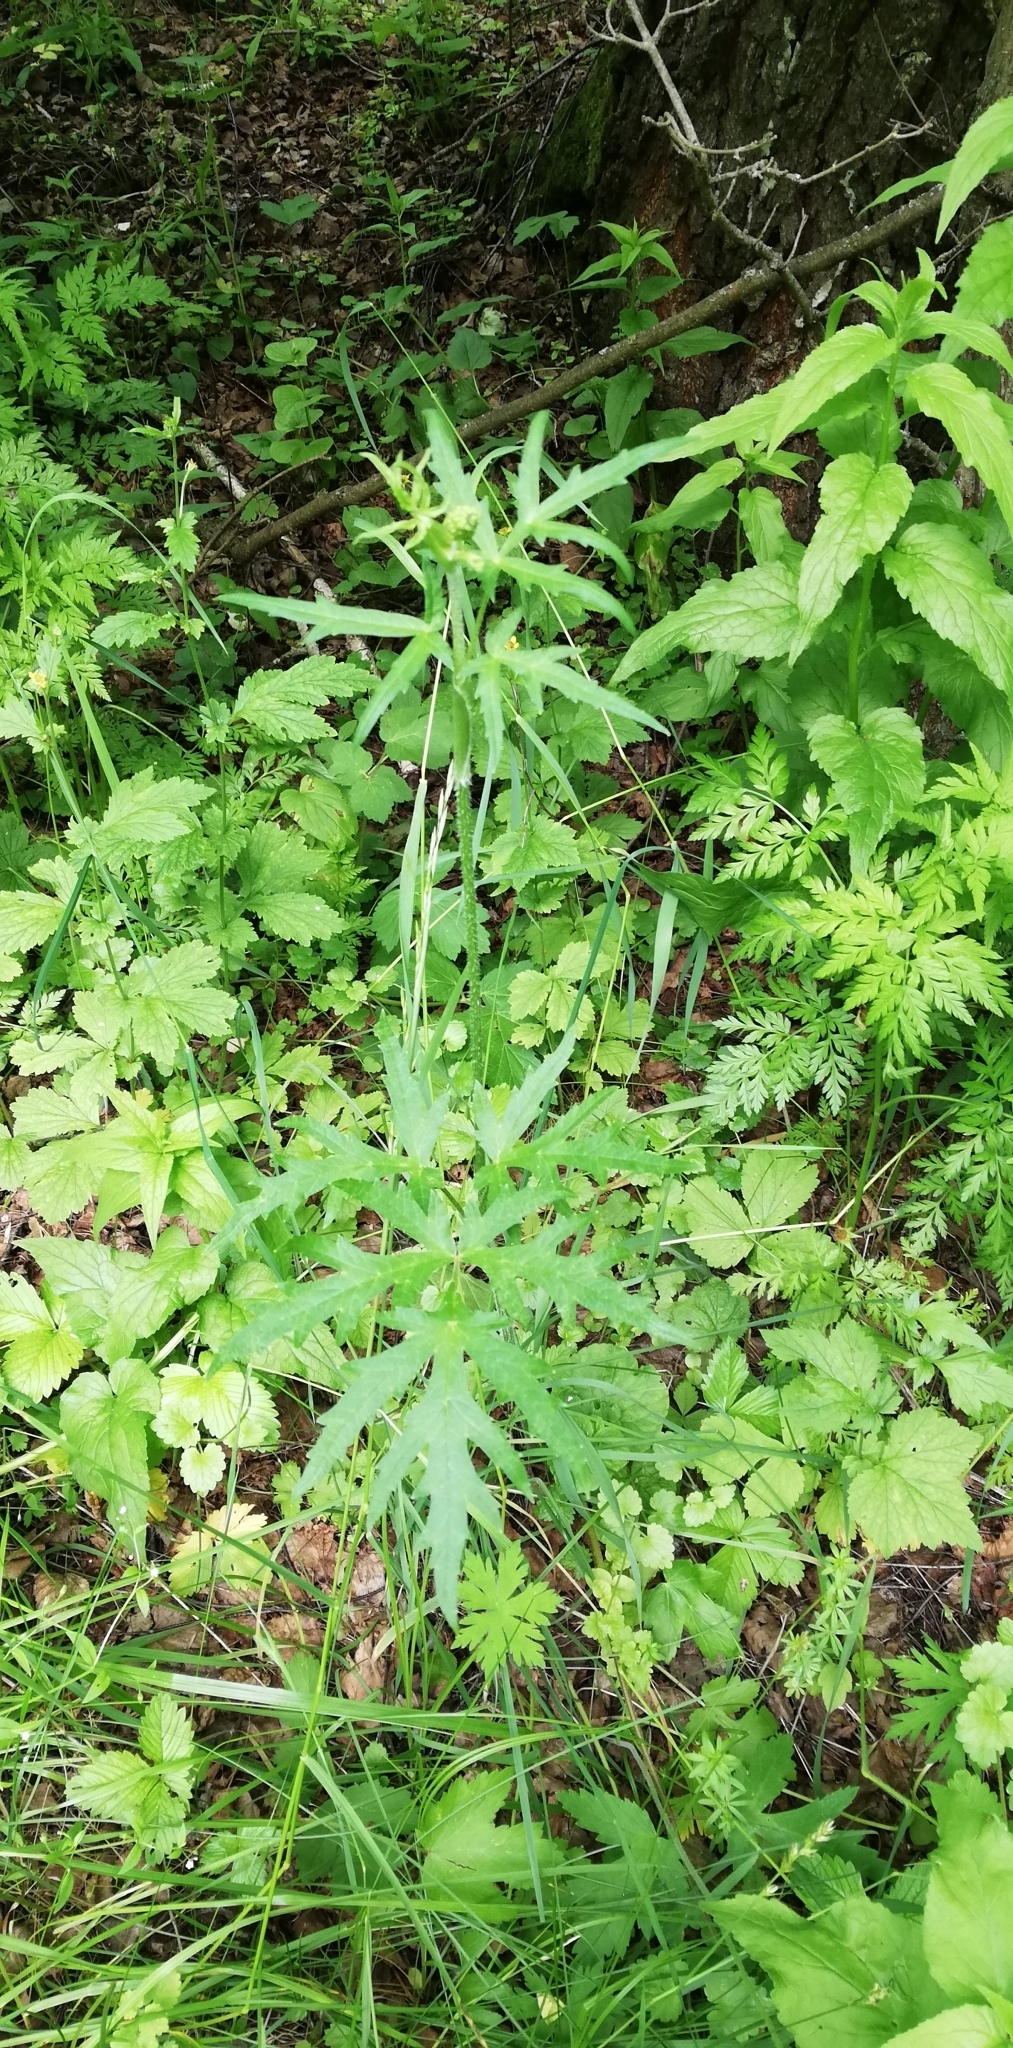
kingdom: Plantae
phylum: Tracheophyta
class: Magnoliopsida
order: Apiales
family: Apiaceae
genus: Heracleum
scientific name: Heracleum sphondylium
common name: Hogweed
